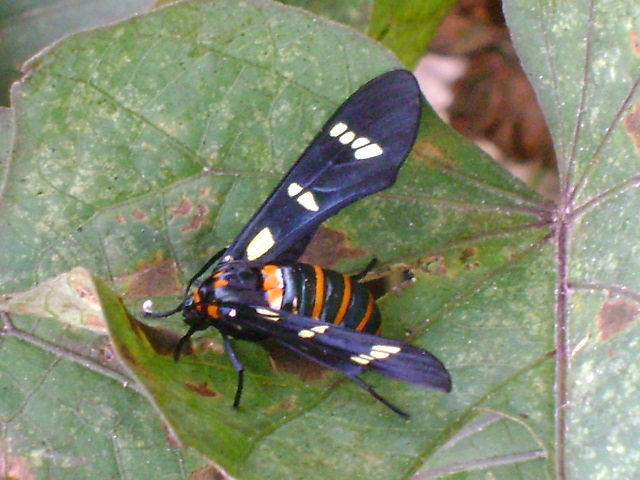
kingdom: Animalia
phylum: Arthropoda
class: Insecta
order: Lepidoptera
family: Erebidae
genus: Syntomeida
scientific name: Syntomeida melanthus
